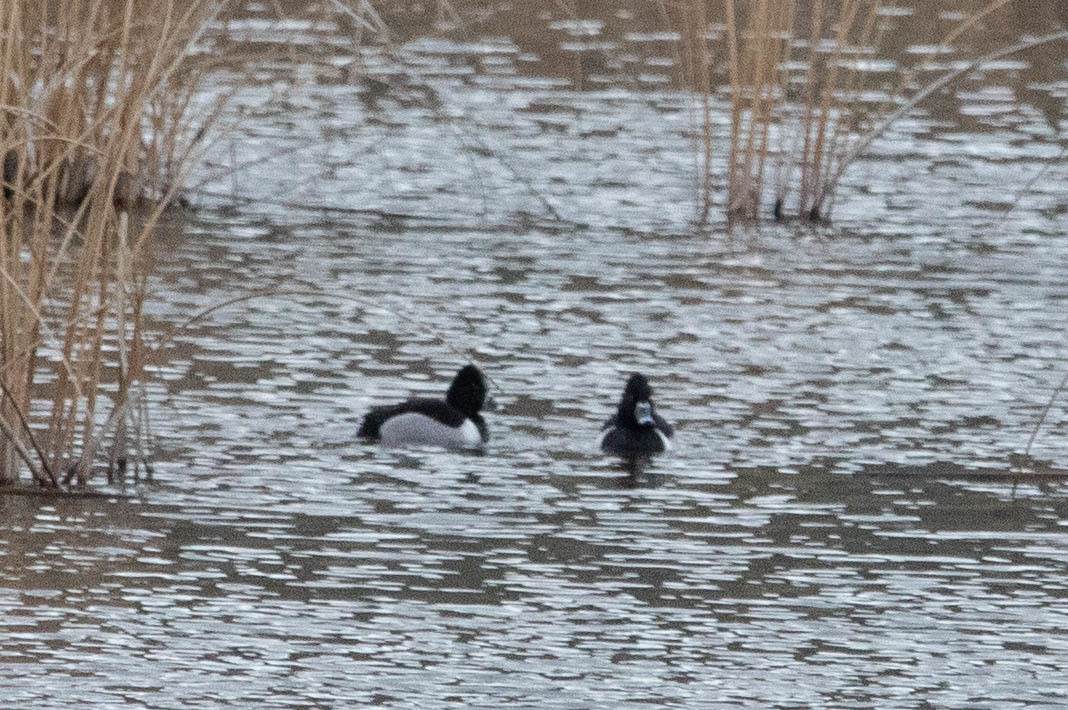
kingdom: Animalia
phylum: Chordata
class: Aves
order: Anseriformes
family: Anatidae
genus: Aythya
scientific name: Aythya collaris
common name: Ring-necked duck
